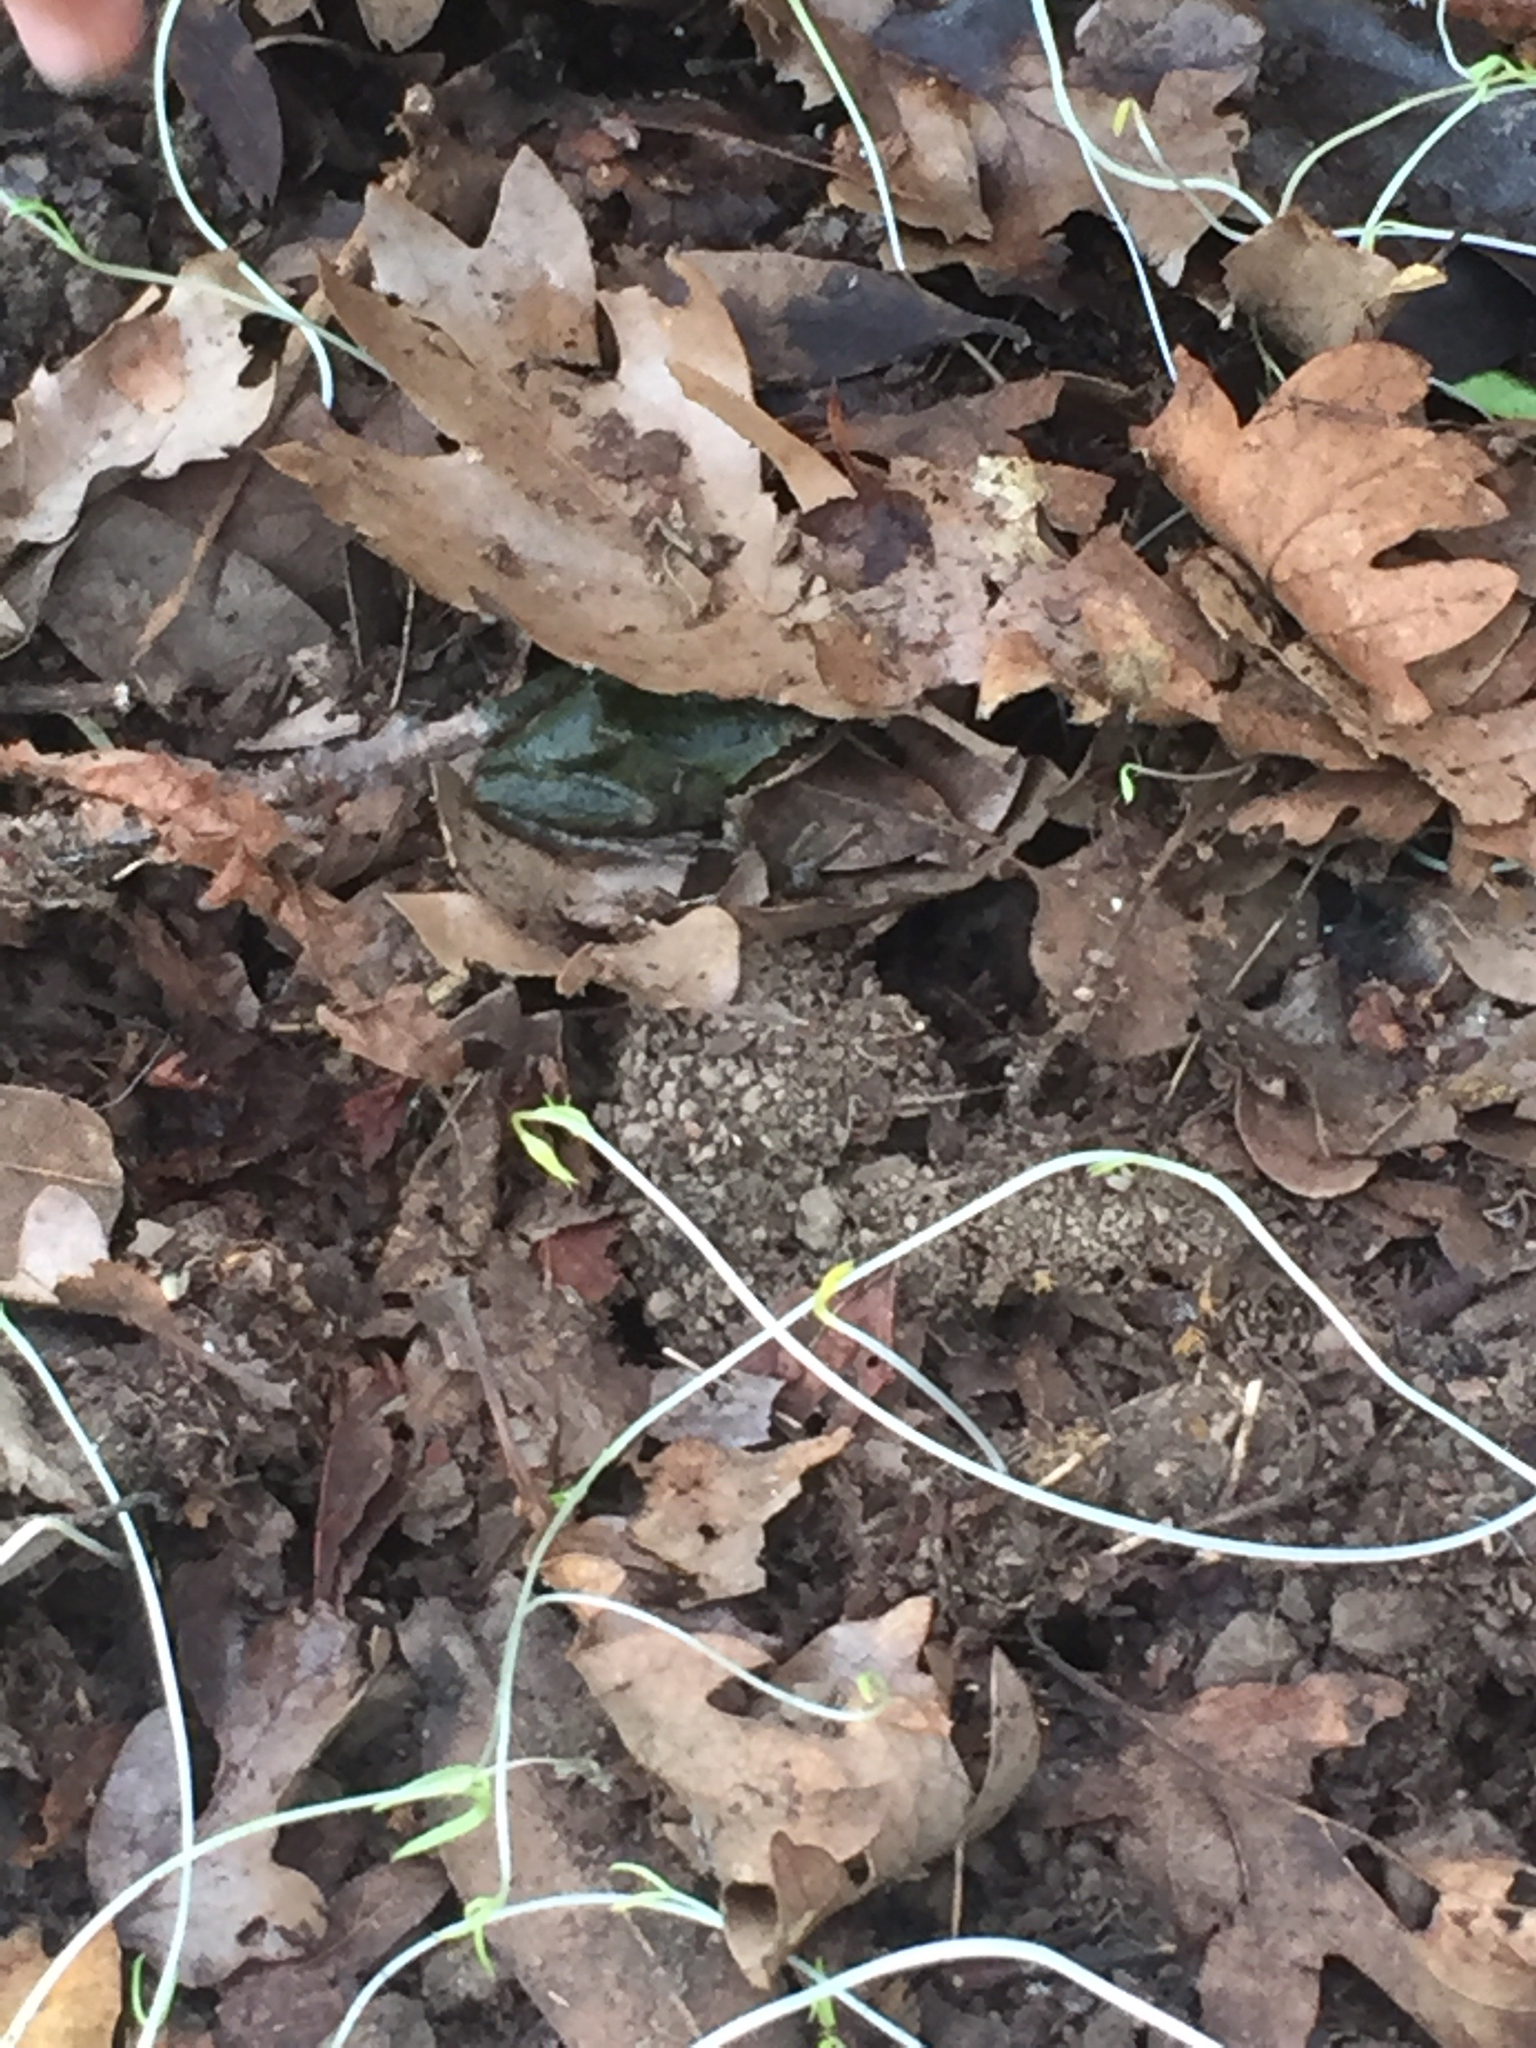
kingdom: Animalia
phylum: Chordata
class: Amphibia
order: Anura
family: Hylidae
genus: Pseudacris
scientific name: Pseudacris regilla
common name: Pacific chorus frog
